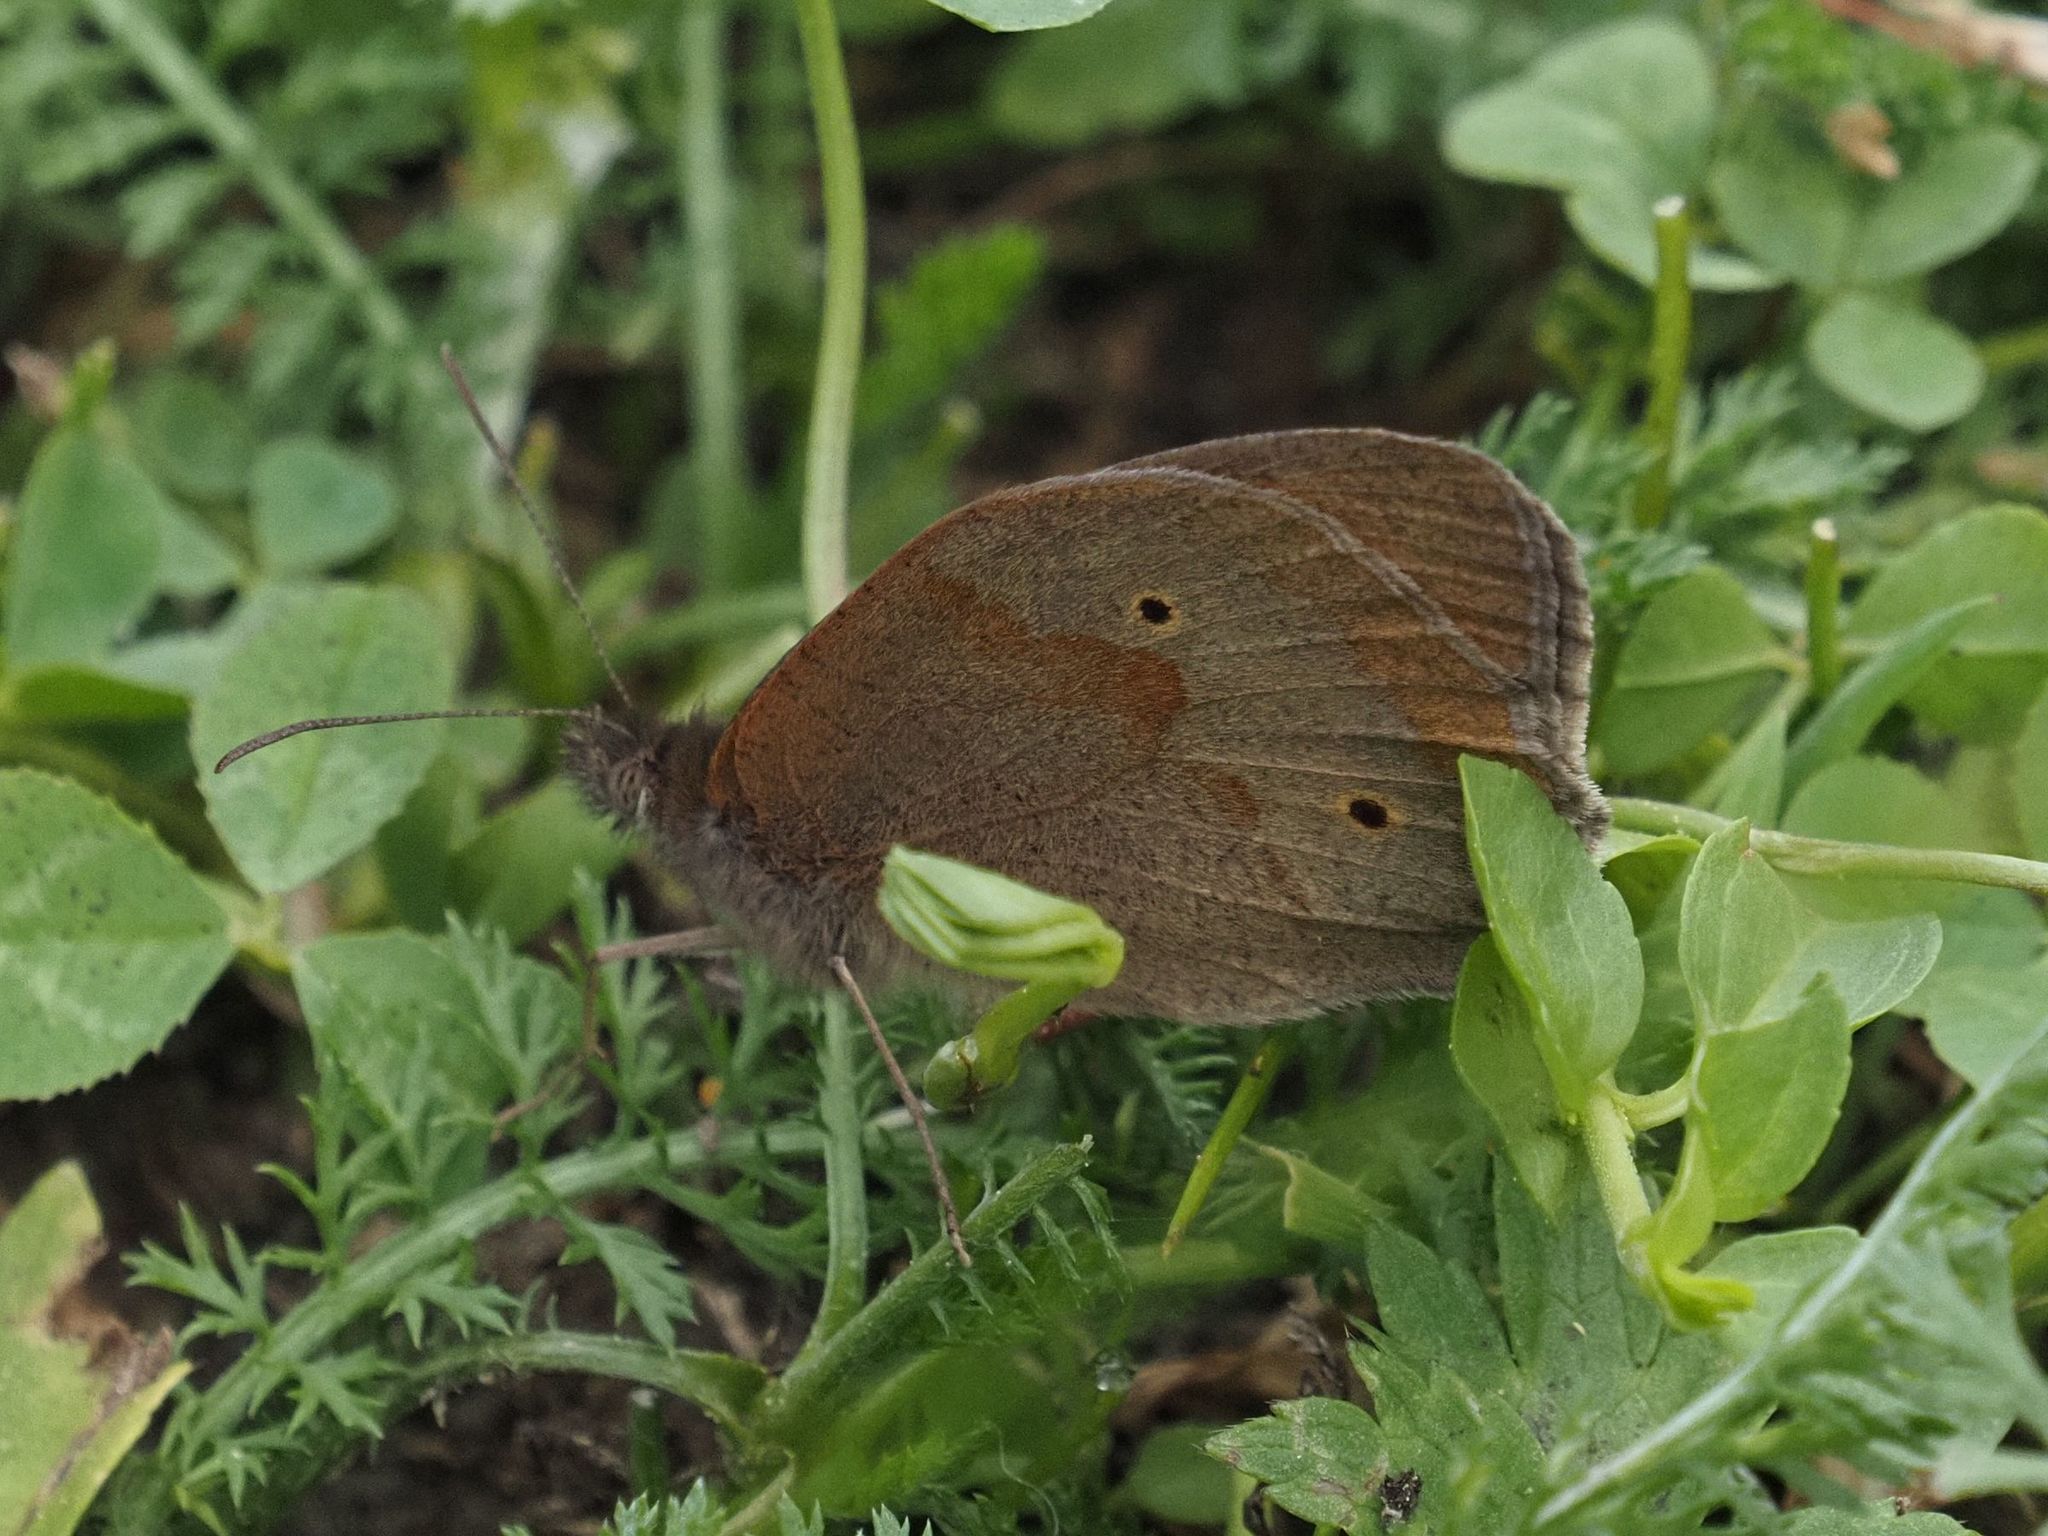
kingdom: Animalia
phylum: Arthropoda
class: Insecta
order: Lepidoptera
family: Nymphalidae
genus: Maniola
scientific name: Maniola jurtina
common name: Meadow brown
